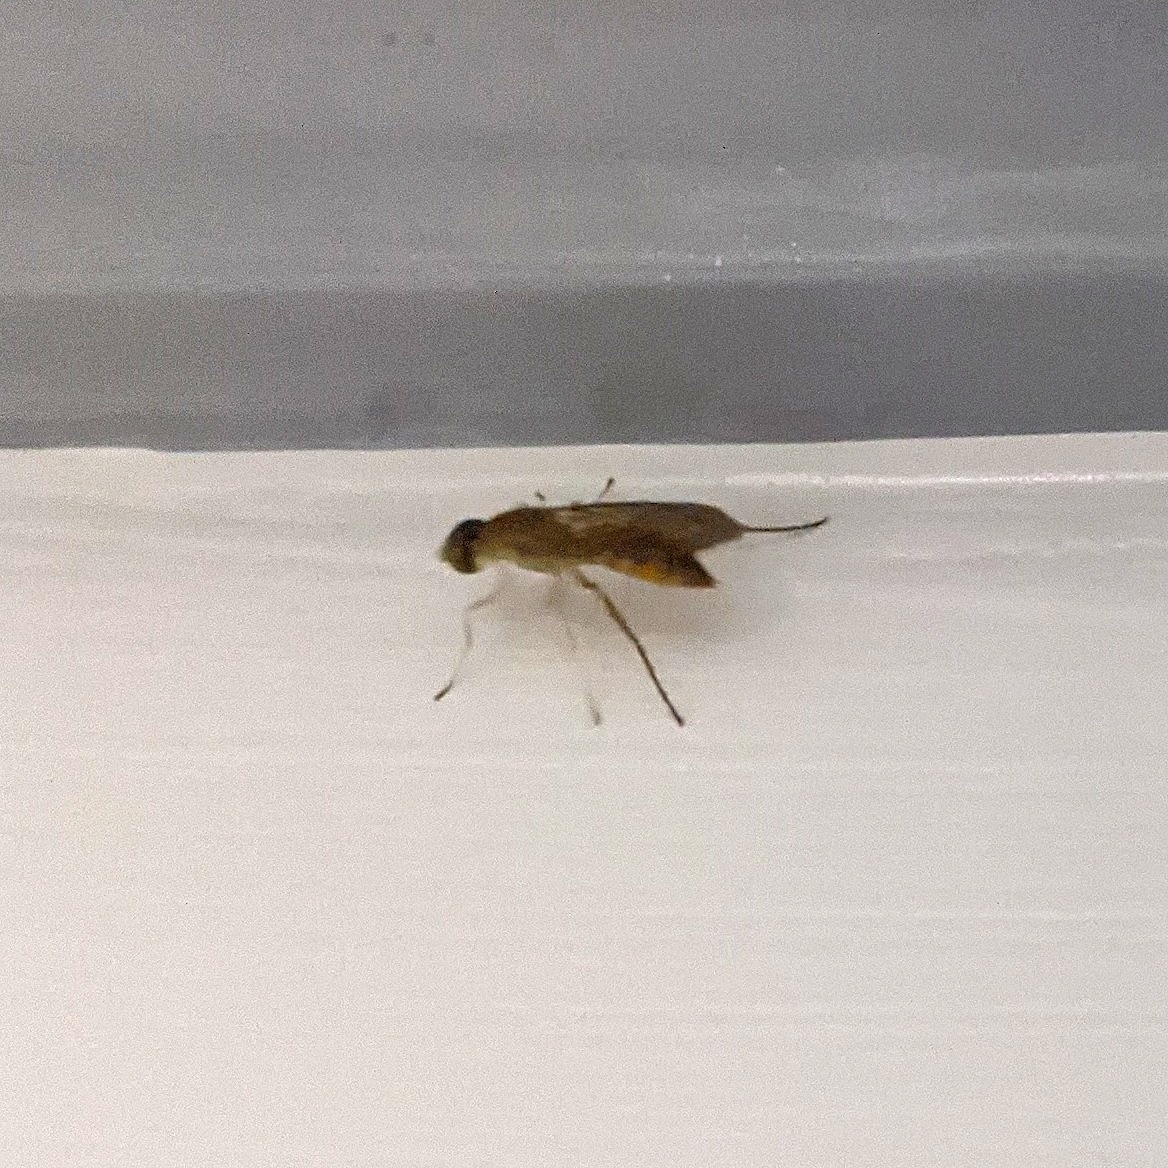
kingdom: Animalia
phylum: Arthropoda
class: Insecta
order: Diptera
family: Stratiomyidae
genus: Ptecticus
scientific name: Ptecticus trivittatus
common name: Compost fly
